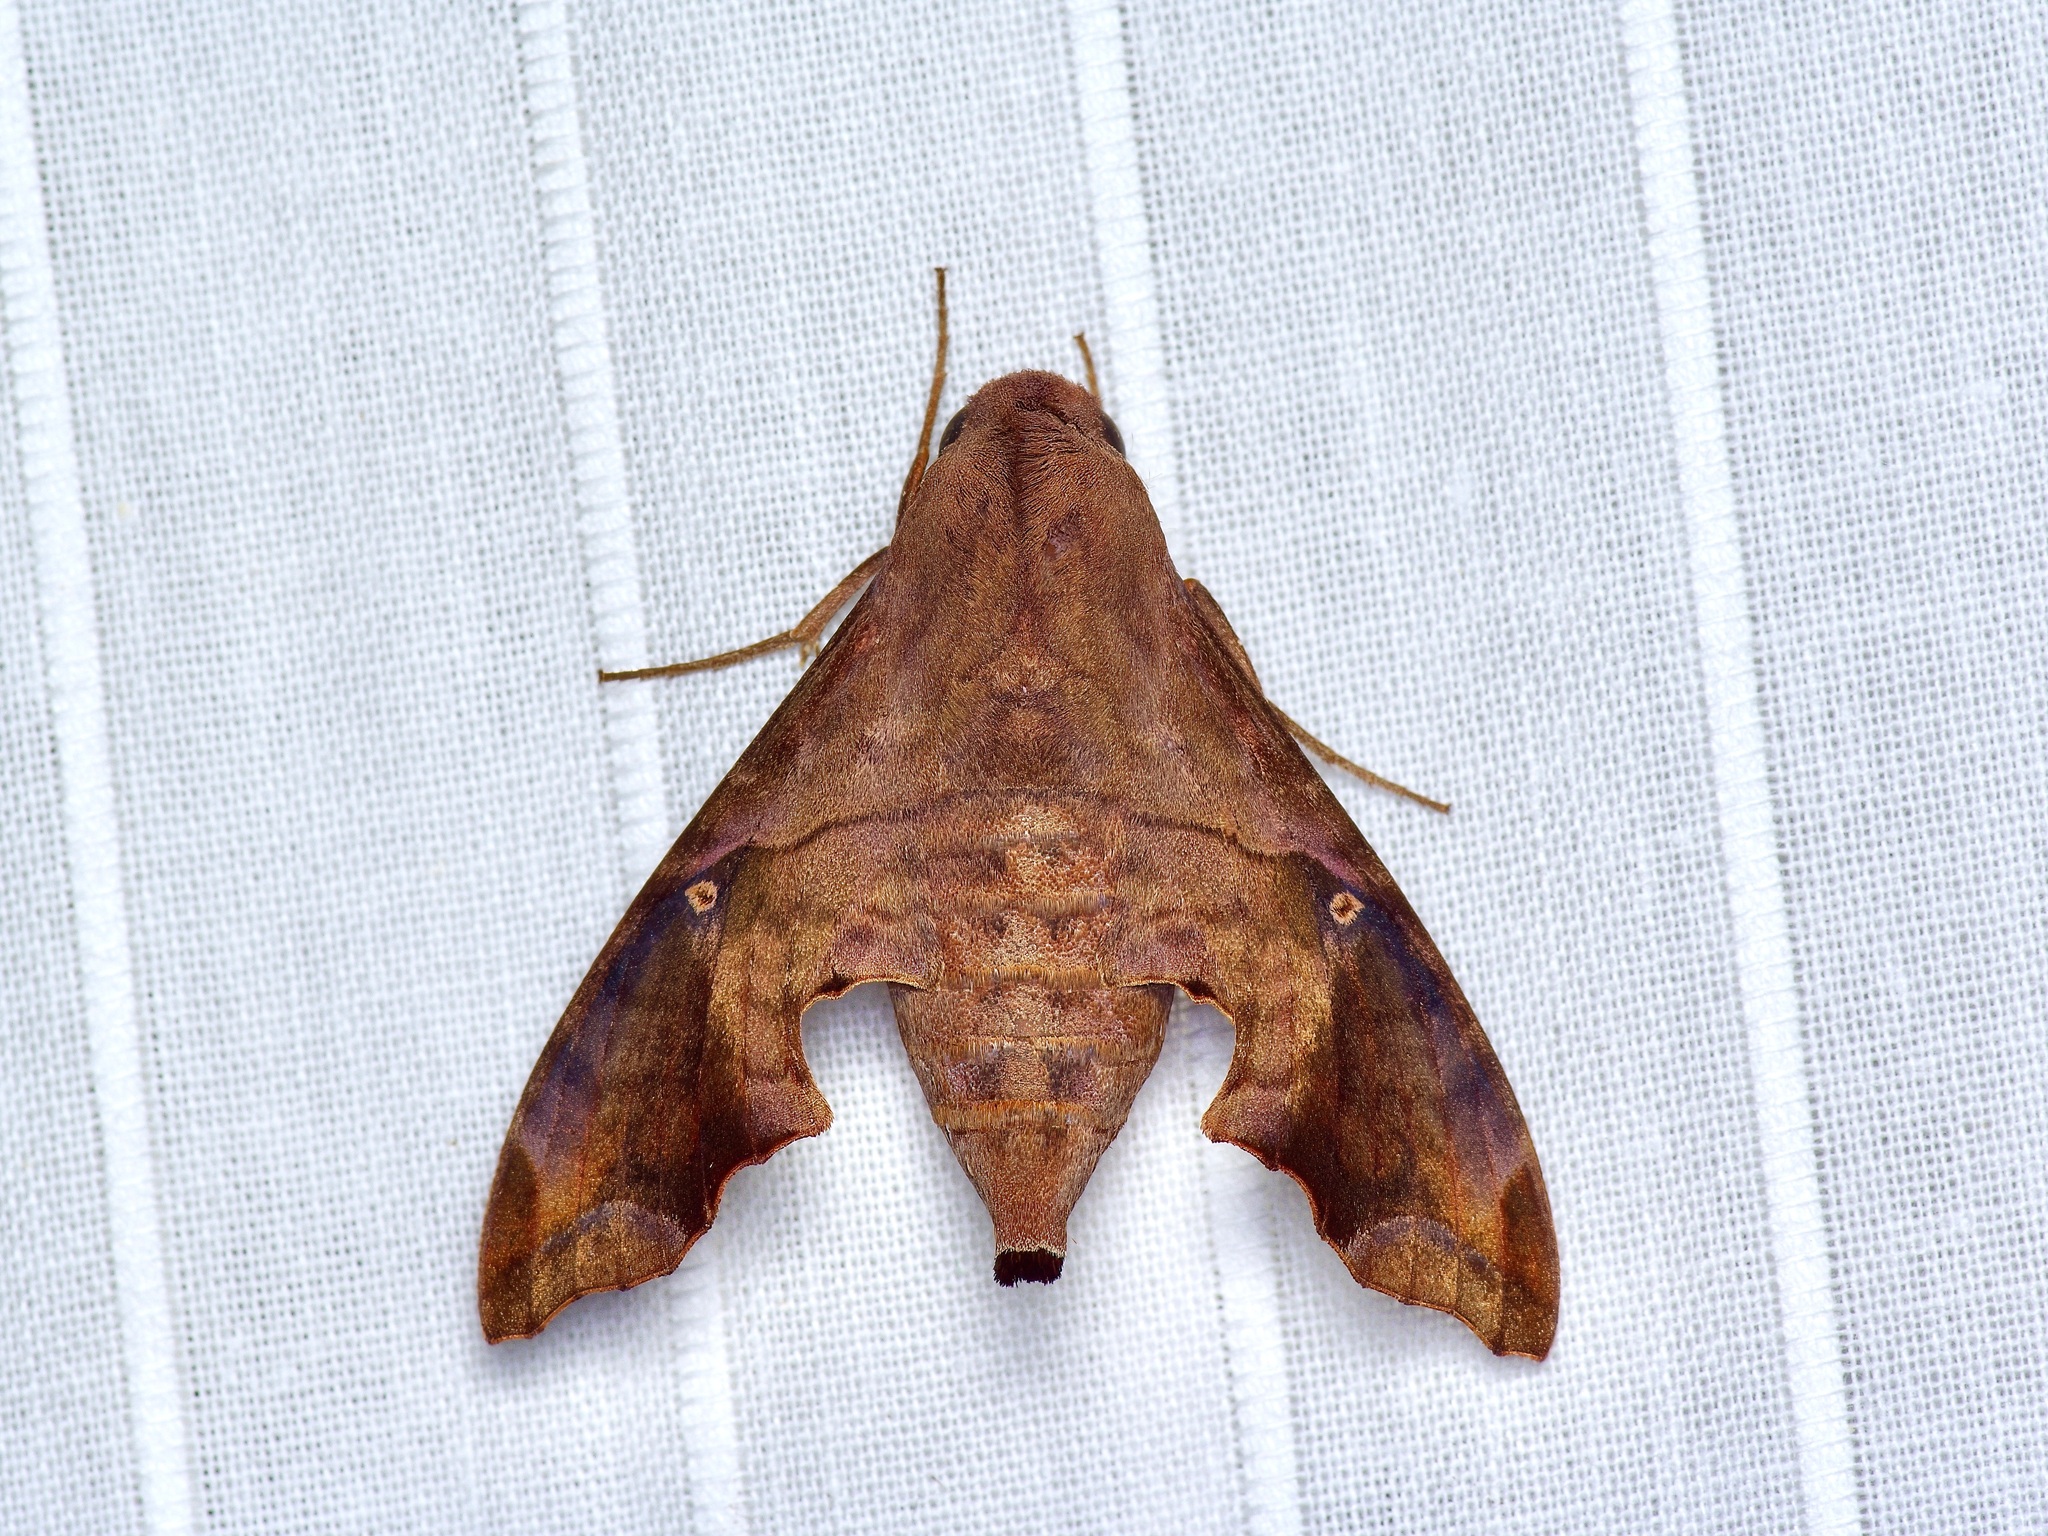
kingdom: Animalia
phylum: Arthropoda
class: Insecta
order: Lepidoptera
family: Sphingidae
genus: Enyo
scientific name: Enyo lugubris
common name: Mournful sphinx
